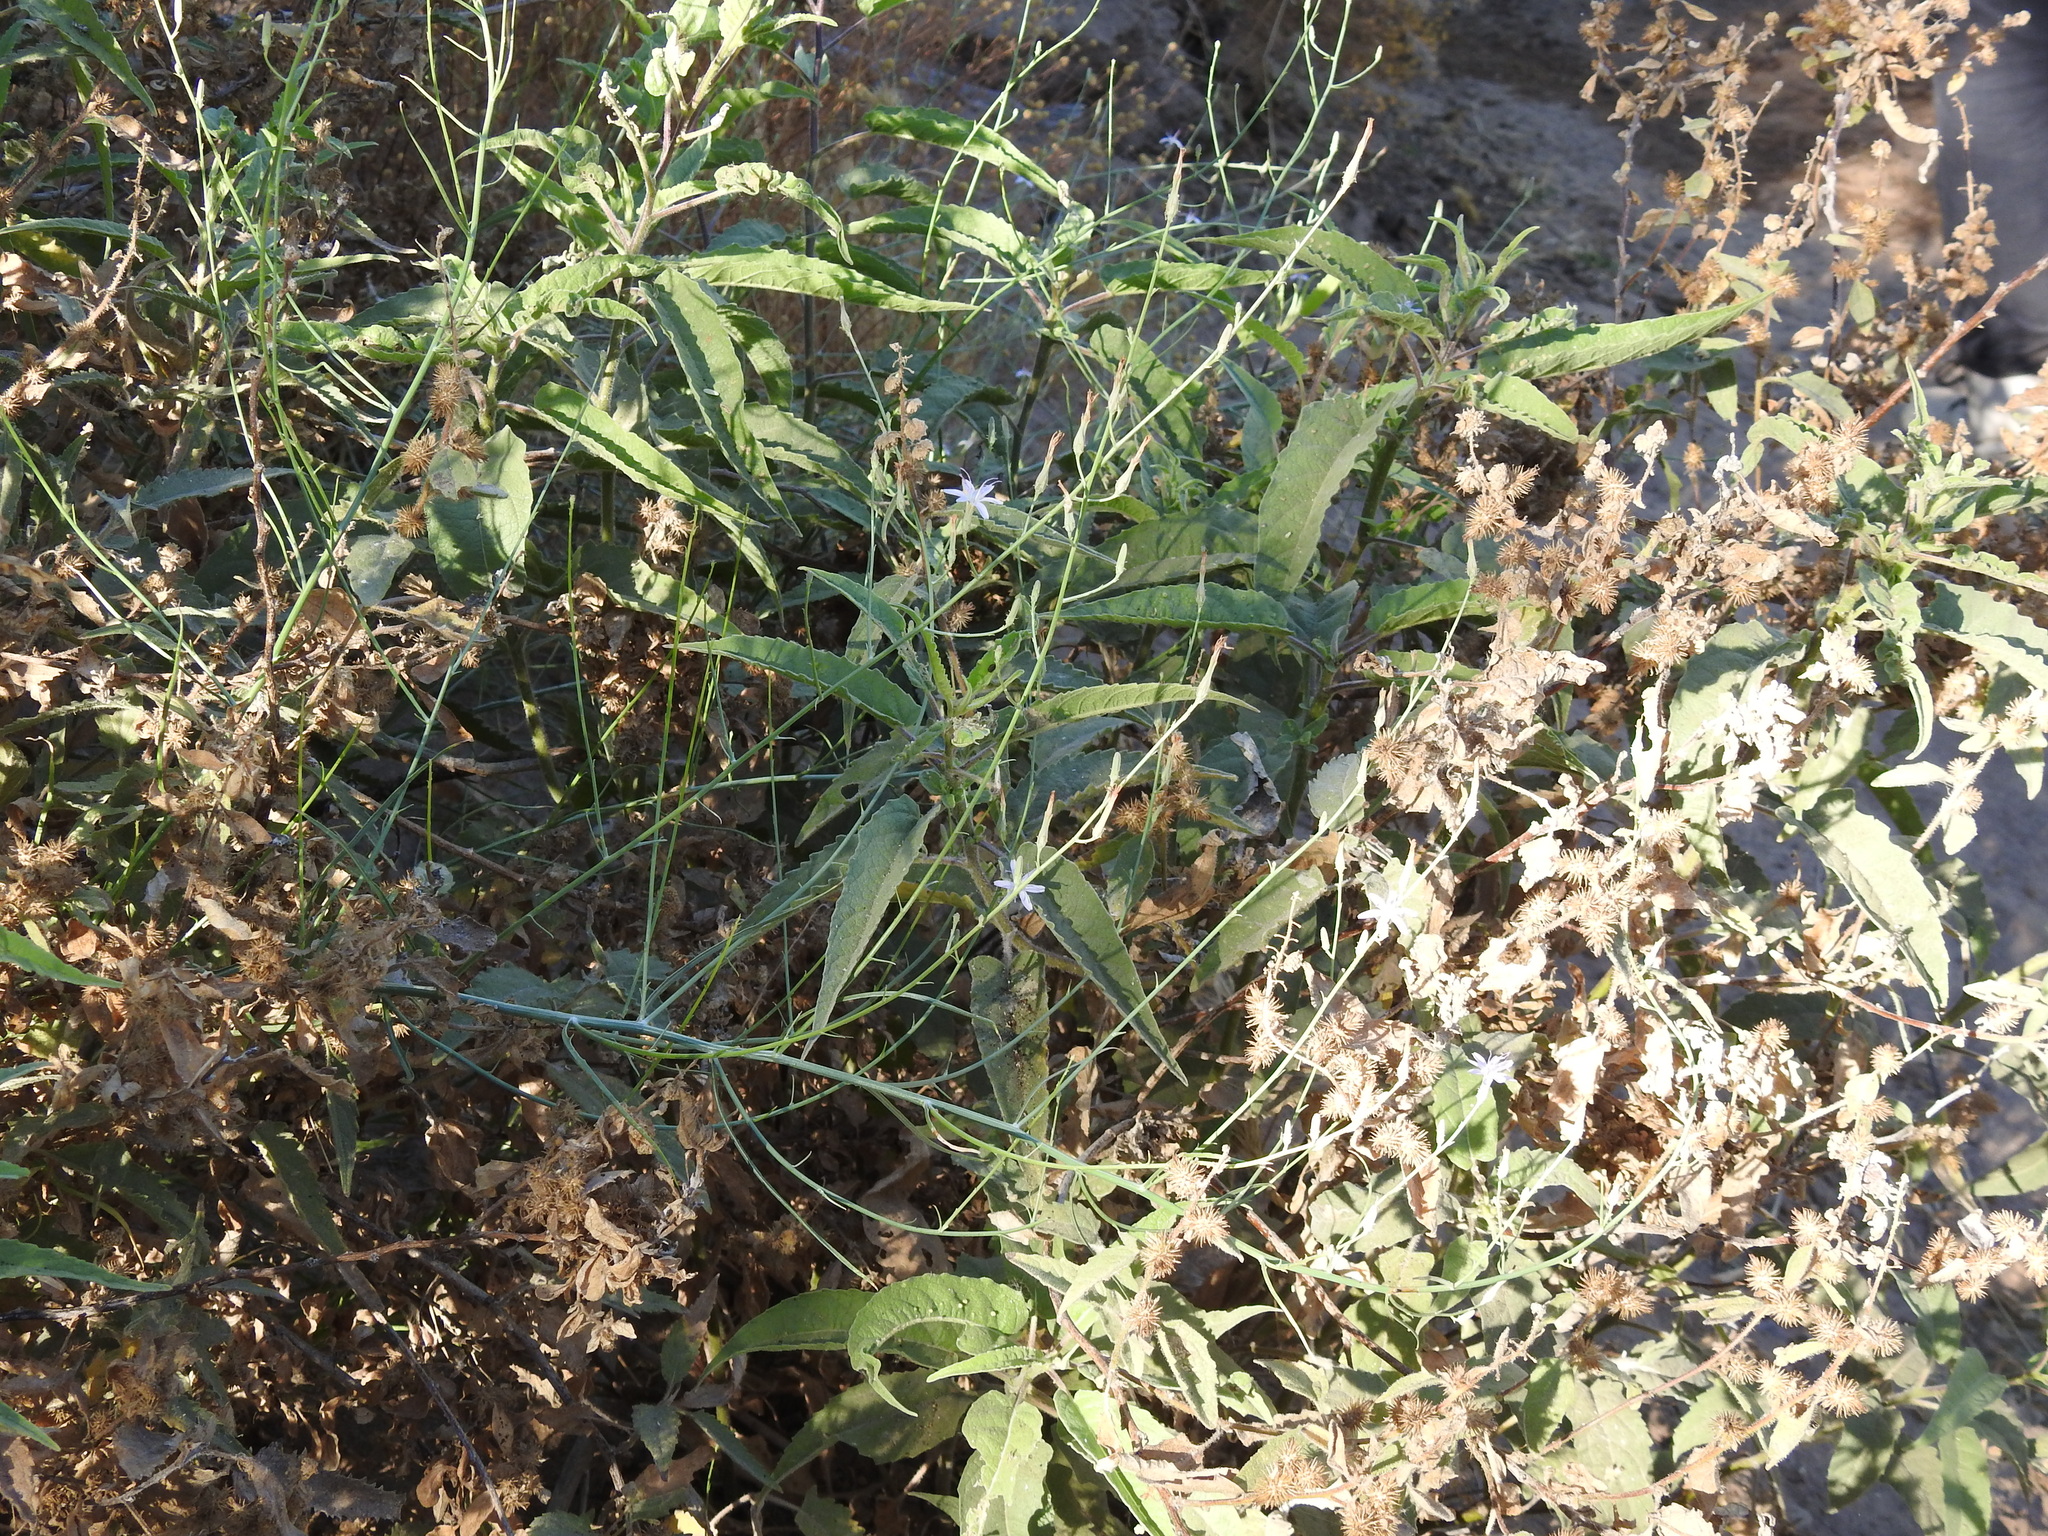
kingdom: Plantae
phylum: Tracheophyta
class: Magnoliopsida
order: Asterales
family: Asteraceae
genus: Ambrosia
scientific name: Ambrosia ambrosioides
